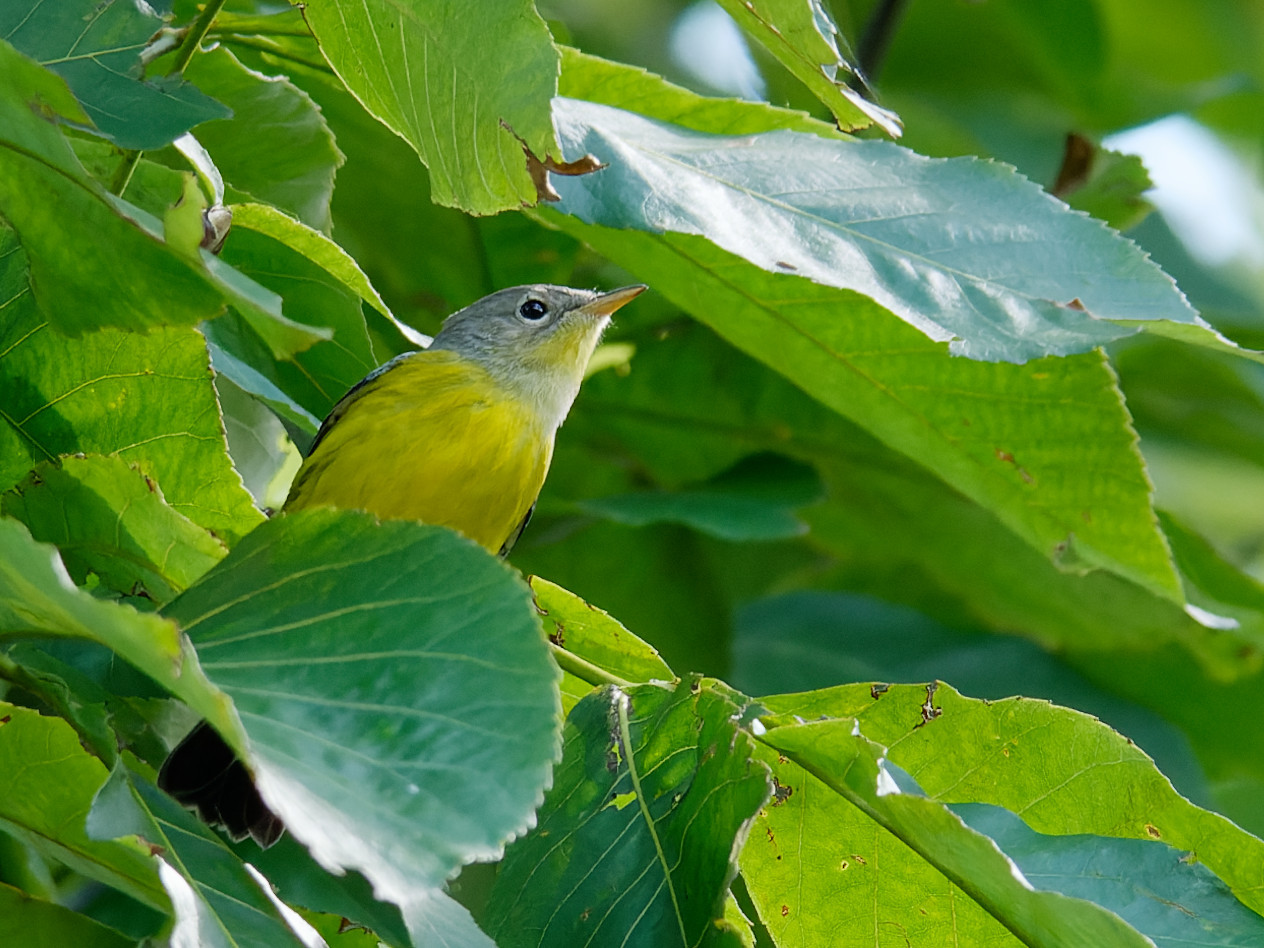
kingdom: Animalia
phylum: Chordata
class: Aves
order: Passeriformes
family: Parulidae
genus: Setophaga
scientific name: Setophaga magnolia
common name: Magnolia warbler
